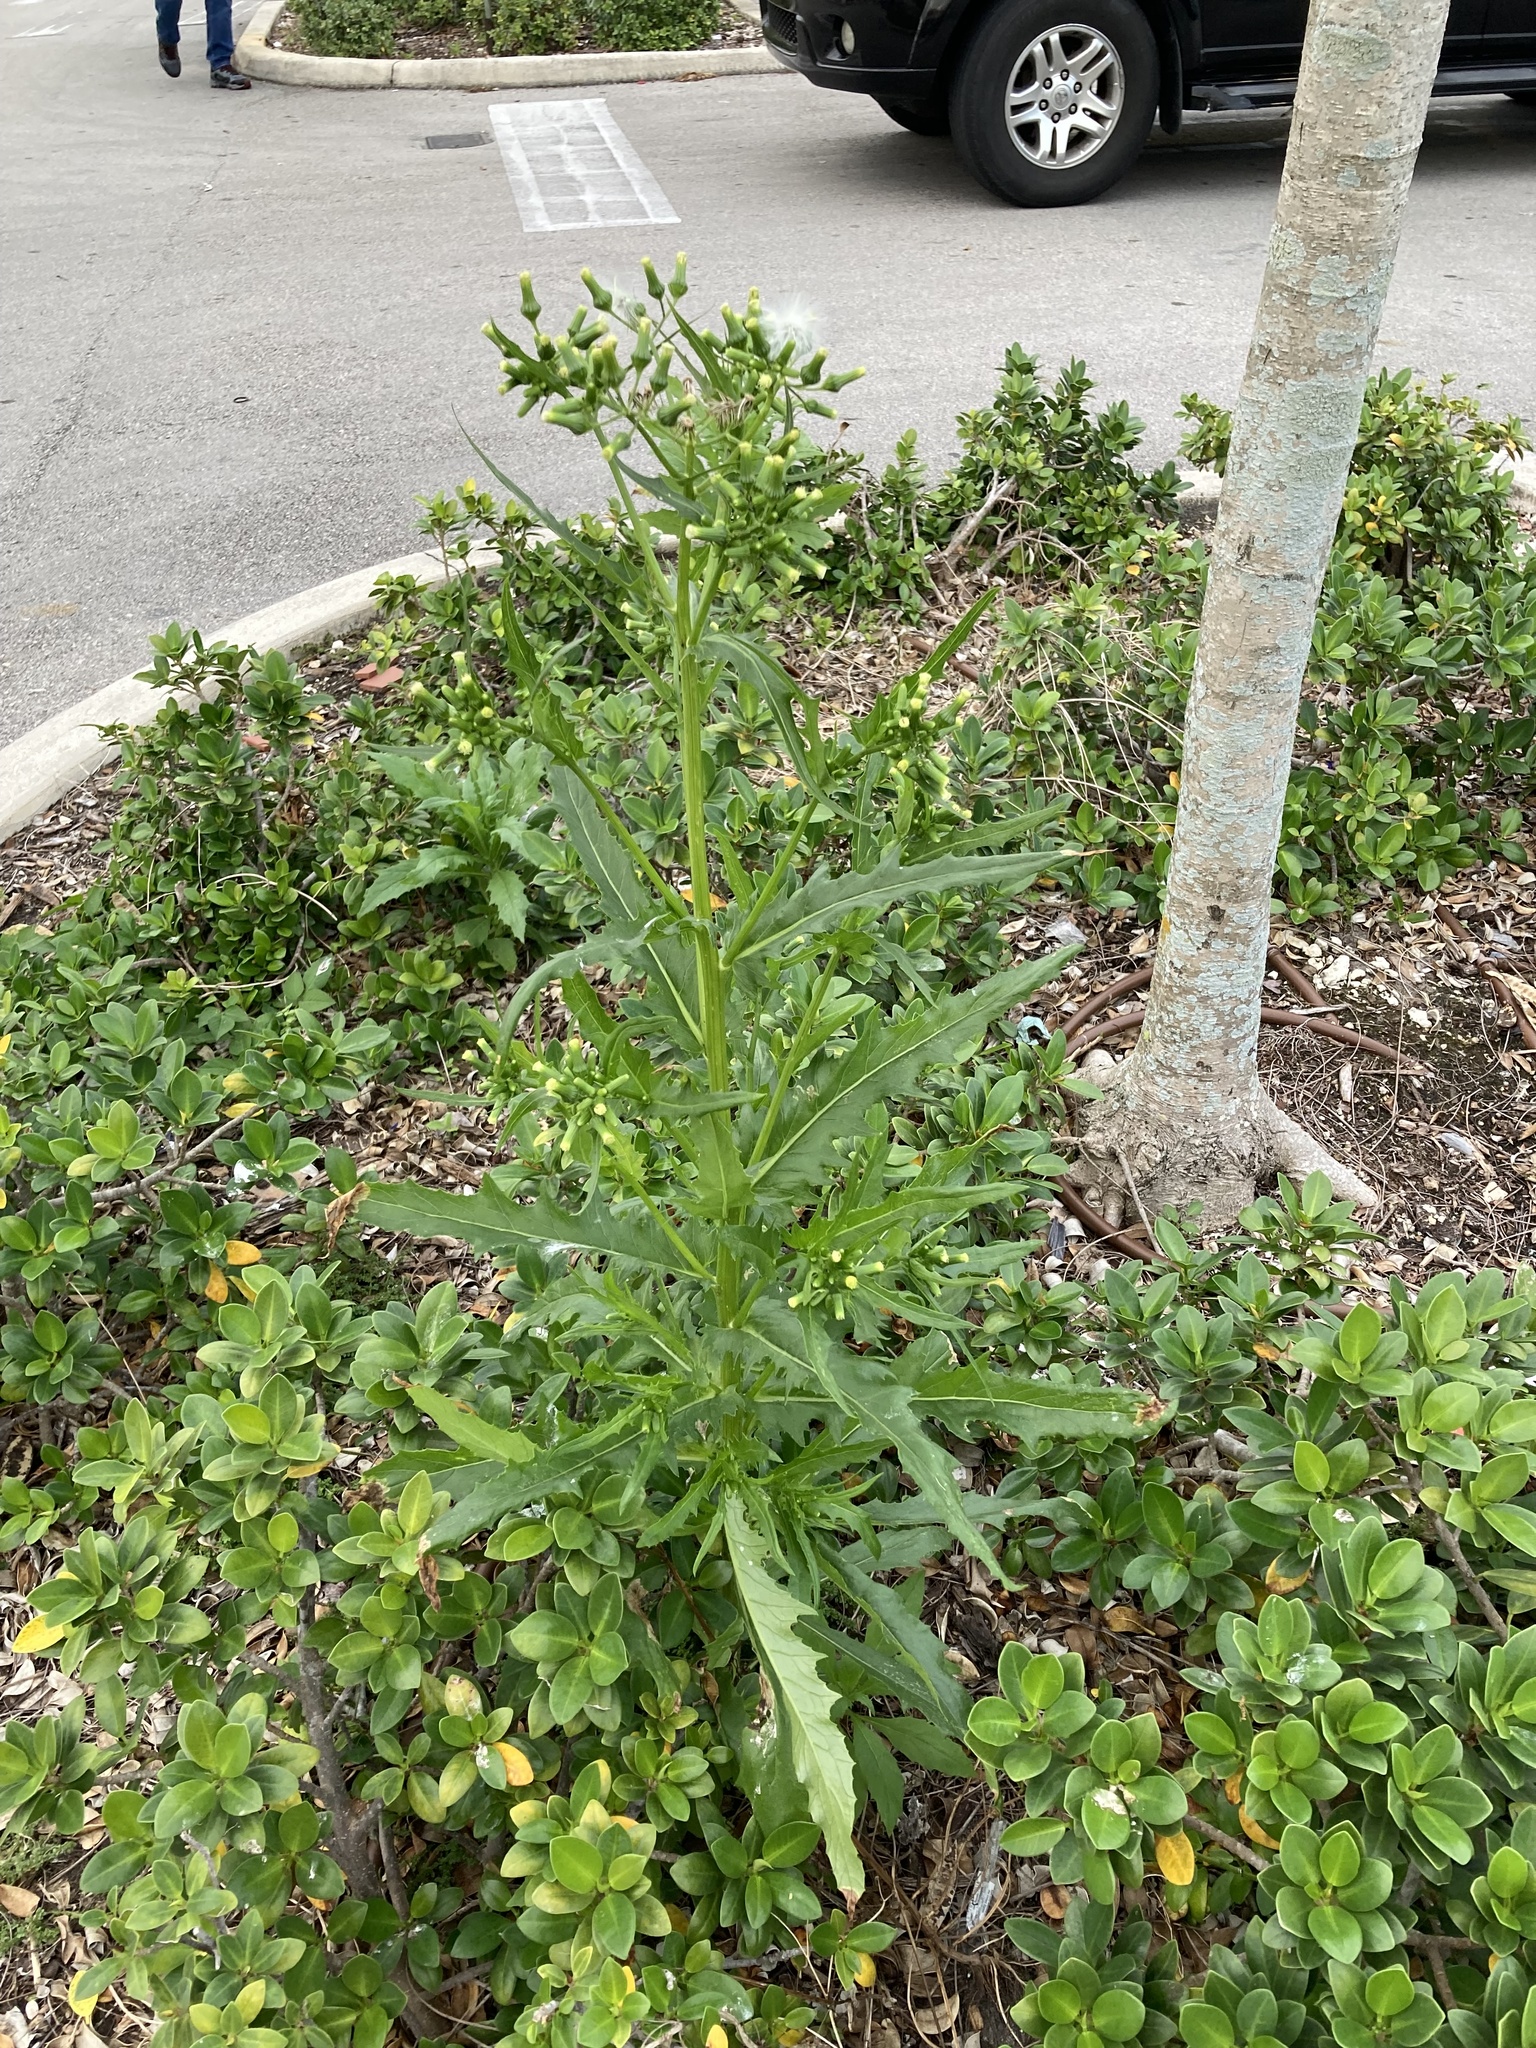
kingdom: Plantae
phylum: Tracheophyta
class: Magnoliopsida
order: Asterales
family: Asteraceae
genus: Erechtites
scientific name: Erechtites hieraciifolius
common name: American burnweed
